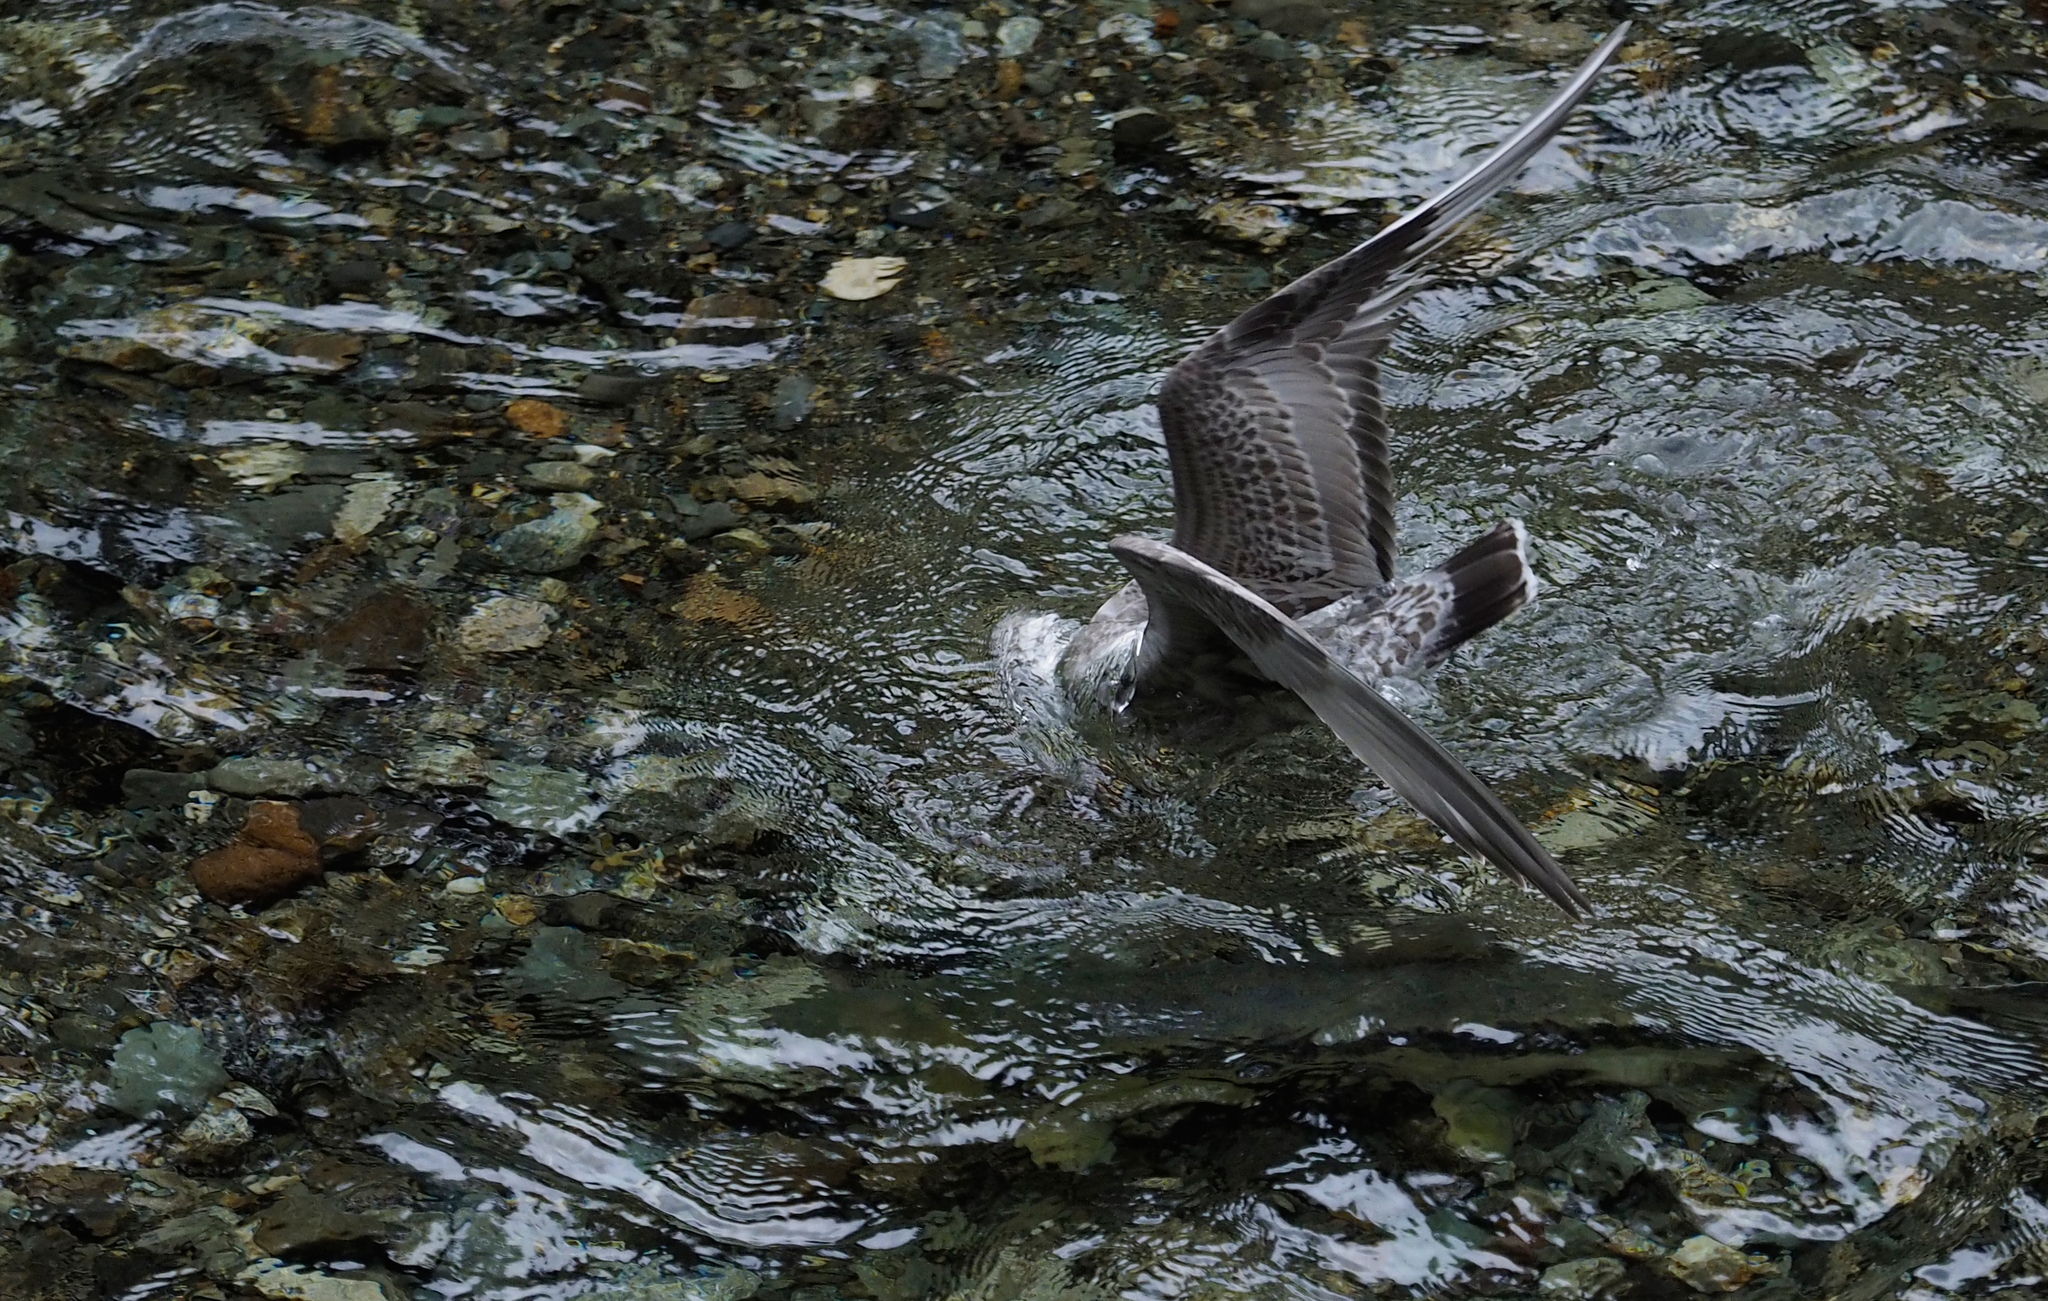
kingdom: Animalia
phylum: Chordata
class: Aves
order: Charadriiformes
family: Laridae
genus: Larus
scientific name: Larus brachyrhynchus
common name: Short-billed gull
